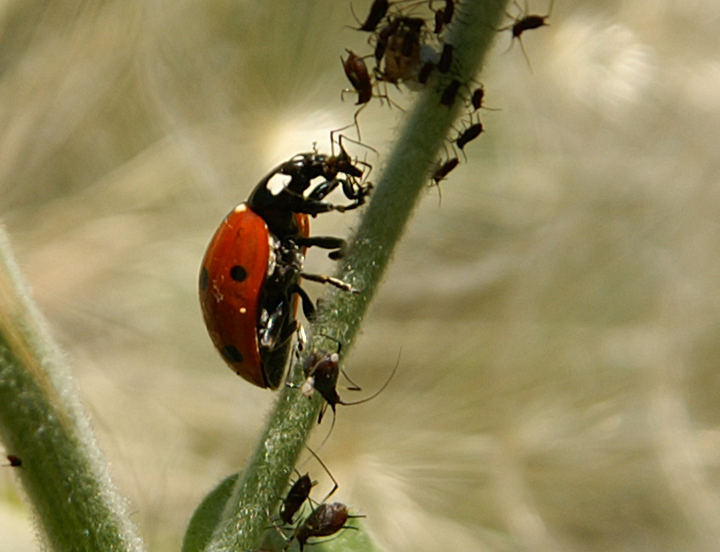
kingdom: Animalia
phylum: Arthropoda
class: Insecta
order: Coleoptera
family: Coccinellidae
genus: Coccinella
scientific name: Coccinella septempunctata
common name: Sevenspotted lady beetle
